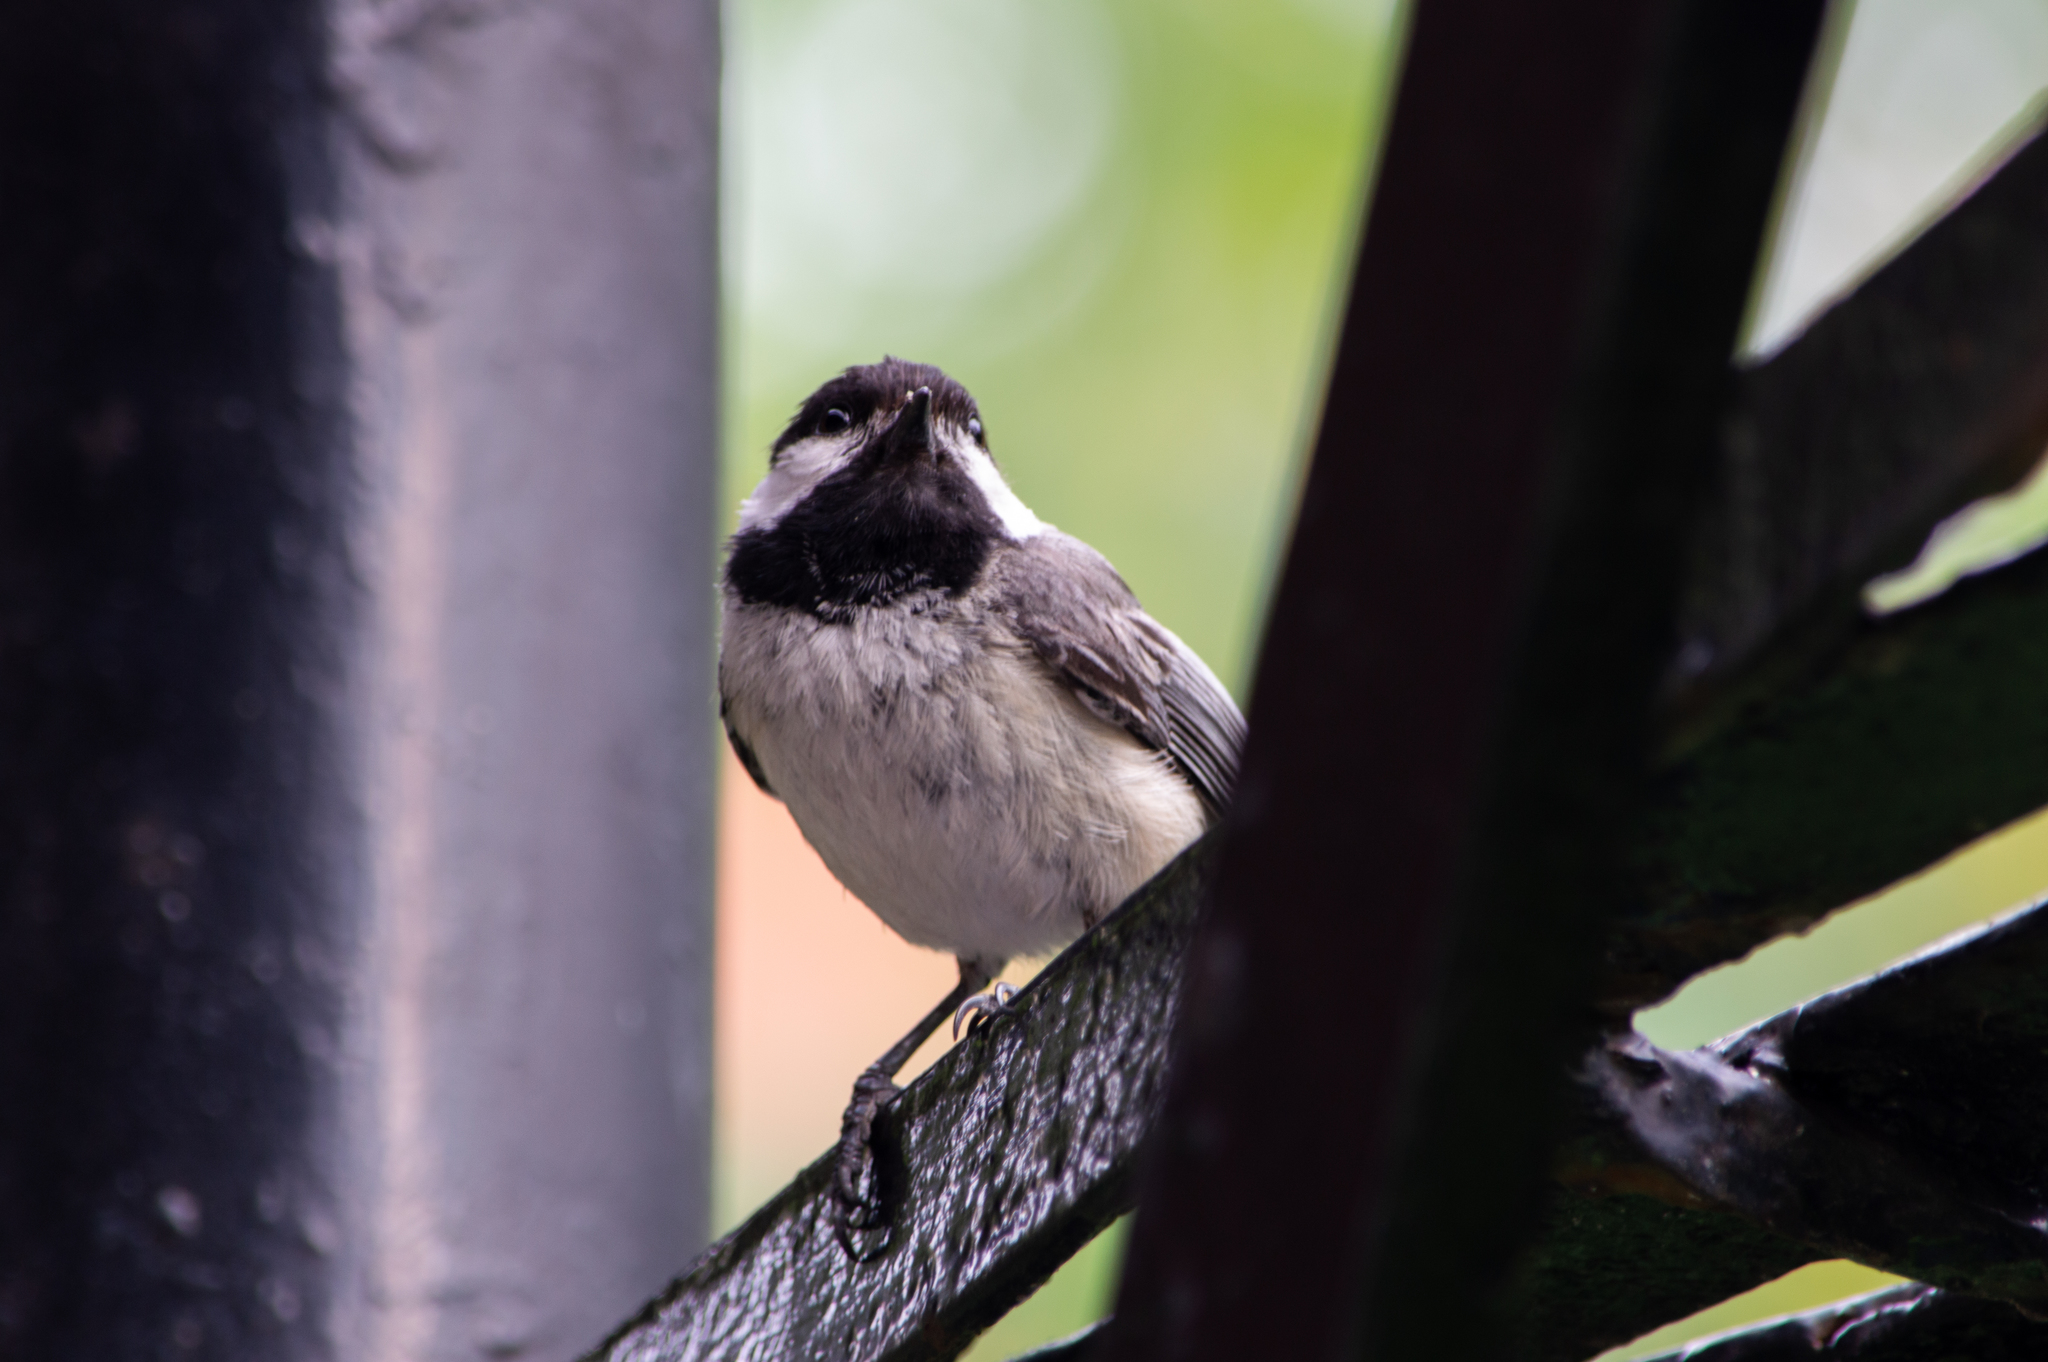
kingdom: Animalia
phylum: Chordata
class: Aves
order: Passeriformes
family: Paridae
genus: Poecile
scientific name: Poecile atricapillus
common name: Black-capped chickadee
